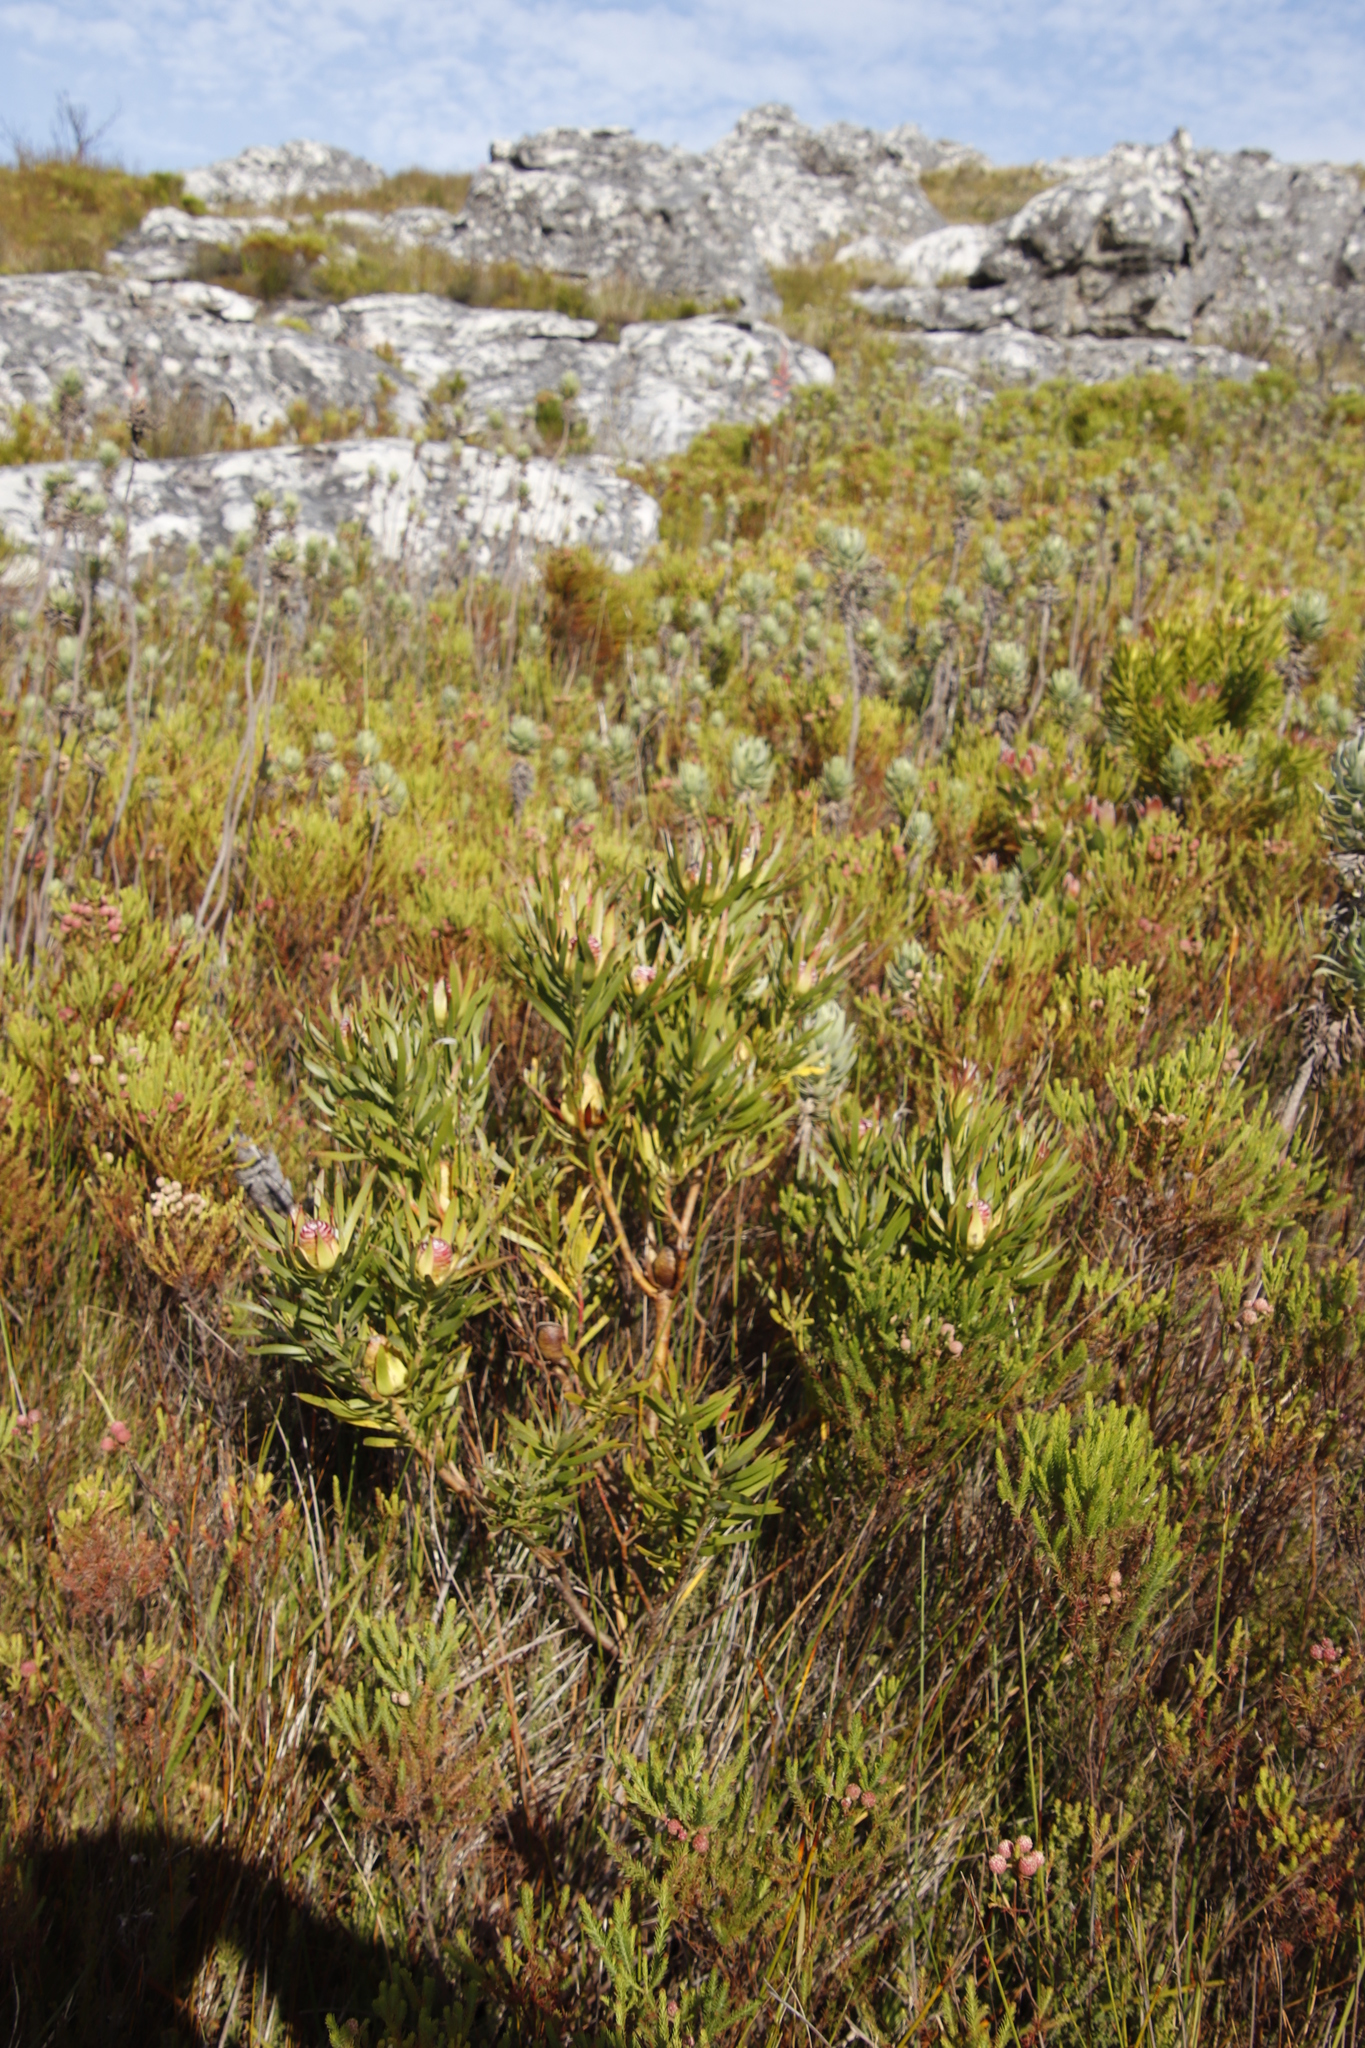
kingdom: Plantae
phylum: Tracheophyta
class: Magnoliopsida
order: Proteales
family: Proteaceae
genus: Leucadendron
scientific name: Leucadendron xanthoconus
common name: Sickle-leaf conebush
